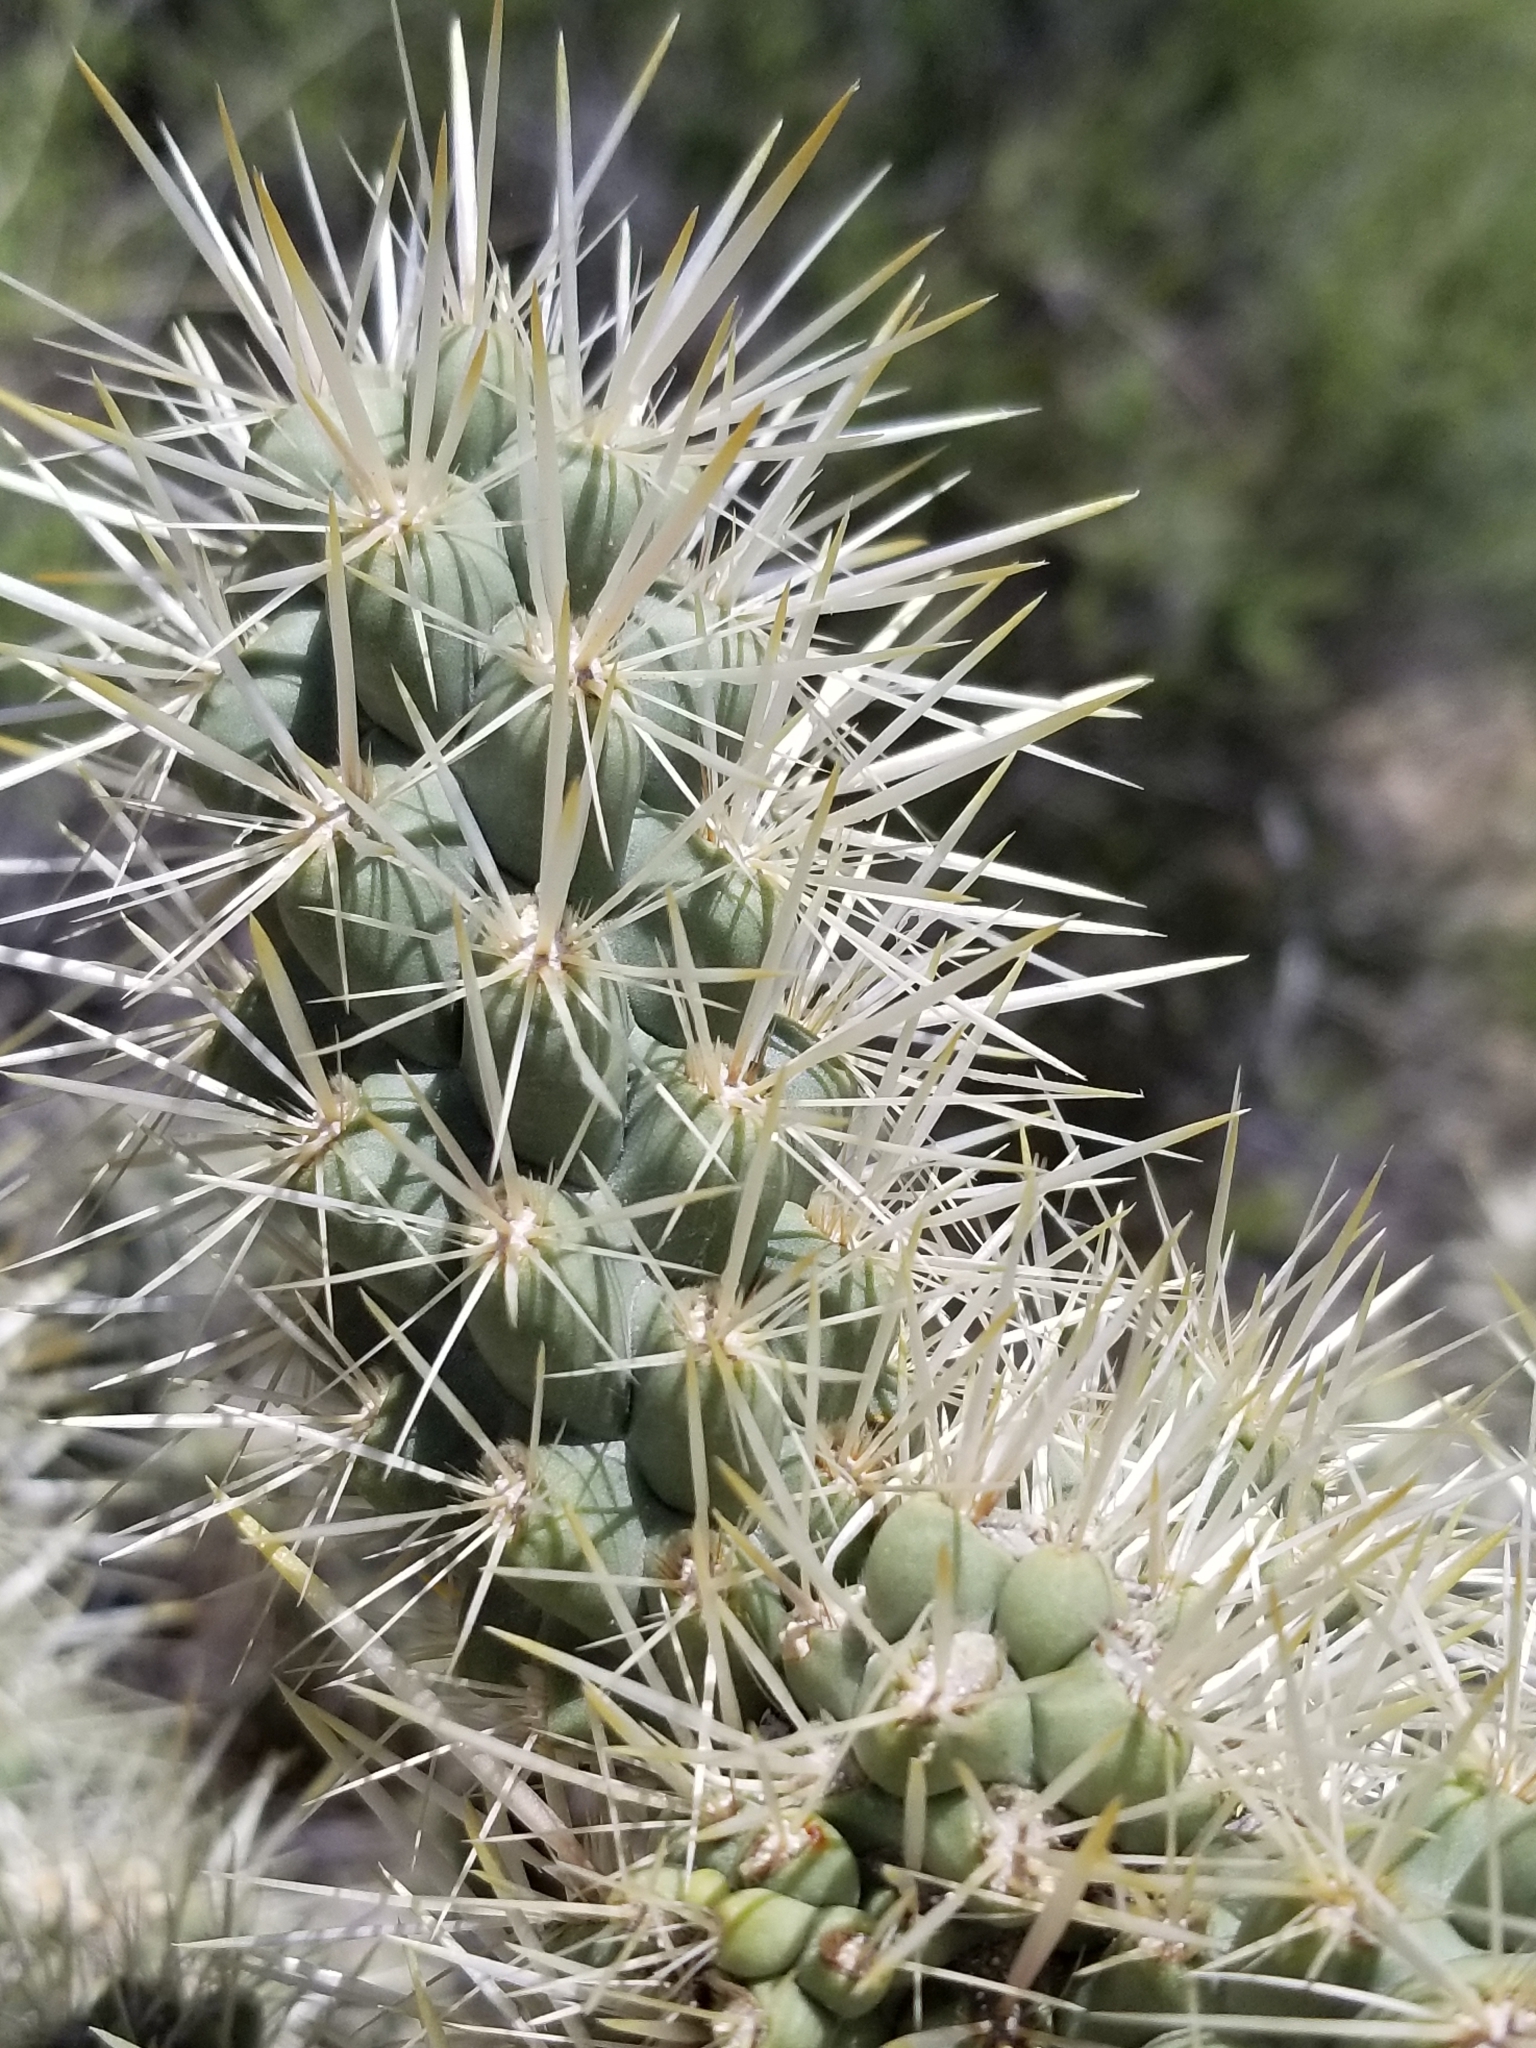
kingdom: Plantae
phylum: Tracheophyta
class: Magnoliopsida
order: Caryophyllales
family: Cactaceae
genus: Cylindropuntia
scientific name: Cylindropuntia echinocarpa
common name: Ground cholla
